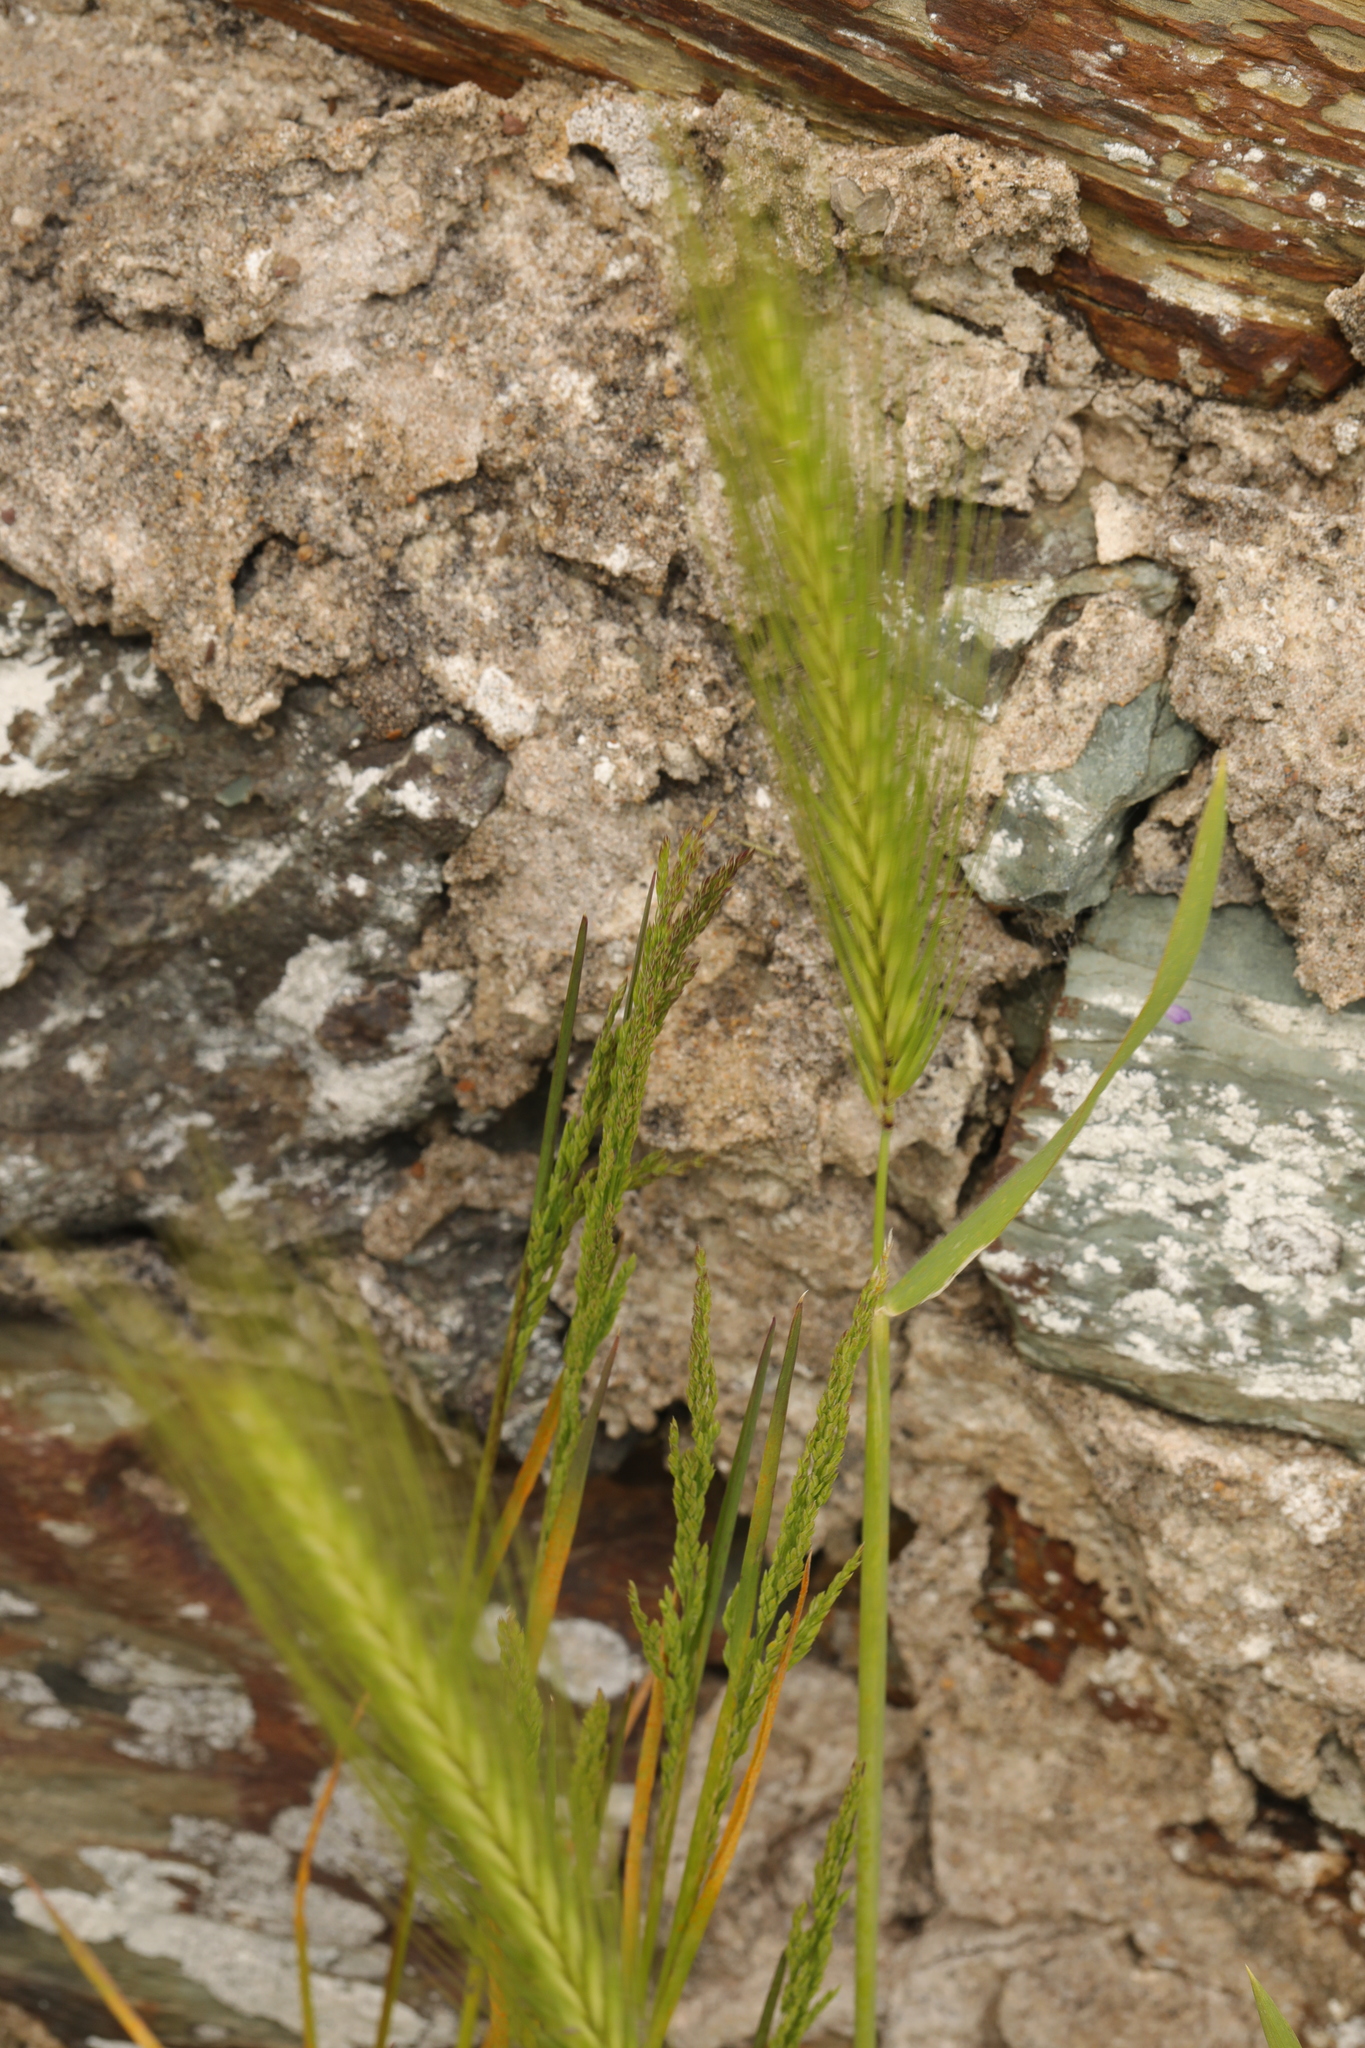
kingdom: Plantae
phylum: Tracheophyta
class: Liliopsida
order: Poales
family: Poaceae
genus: Hordeum
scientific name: Hordeum murinum
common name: Wall barley
